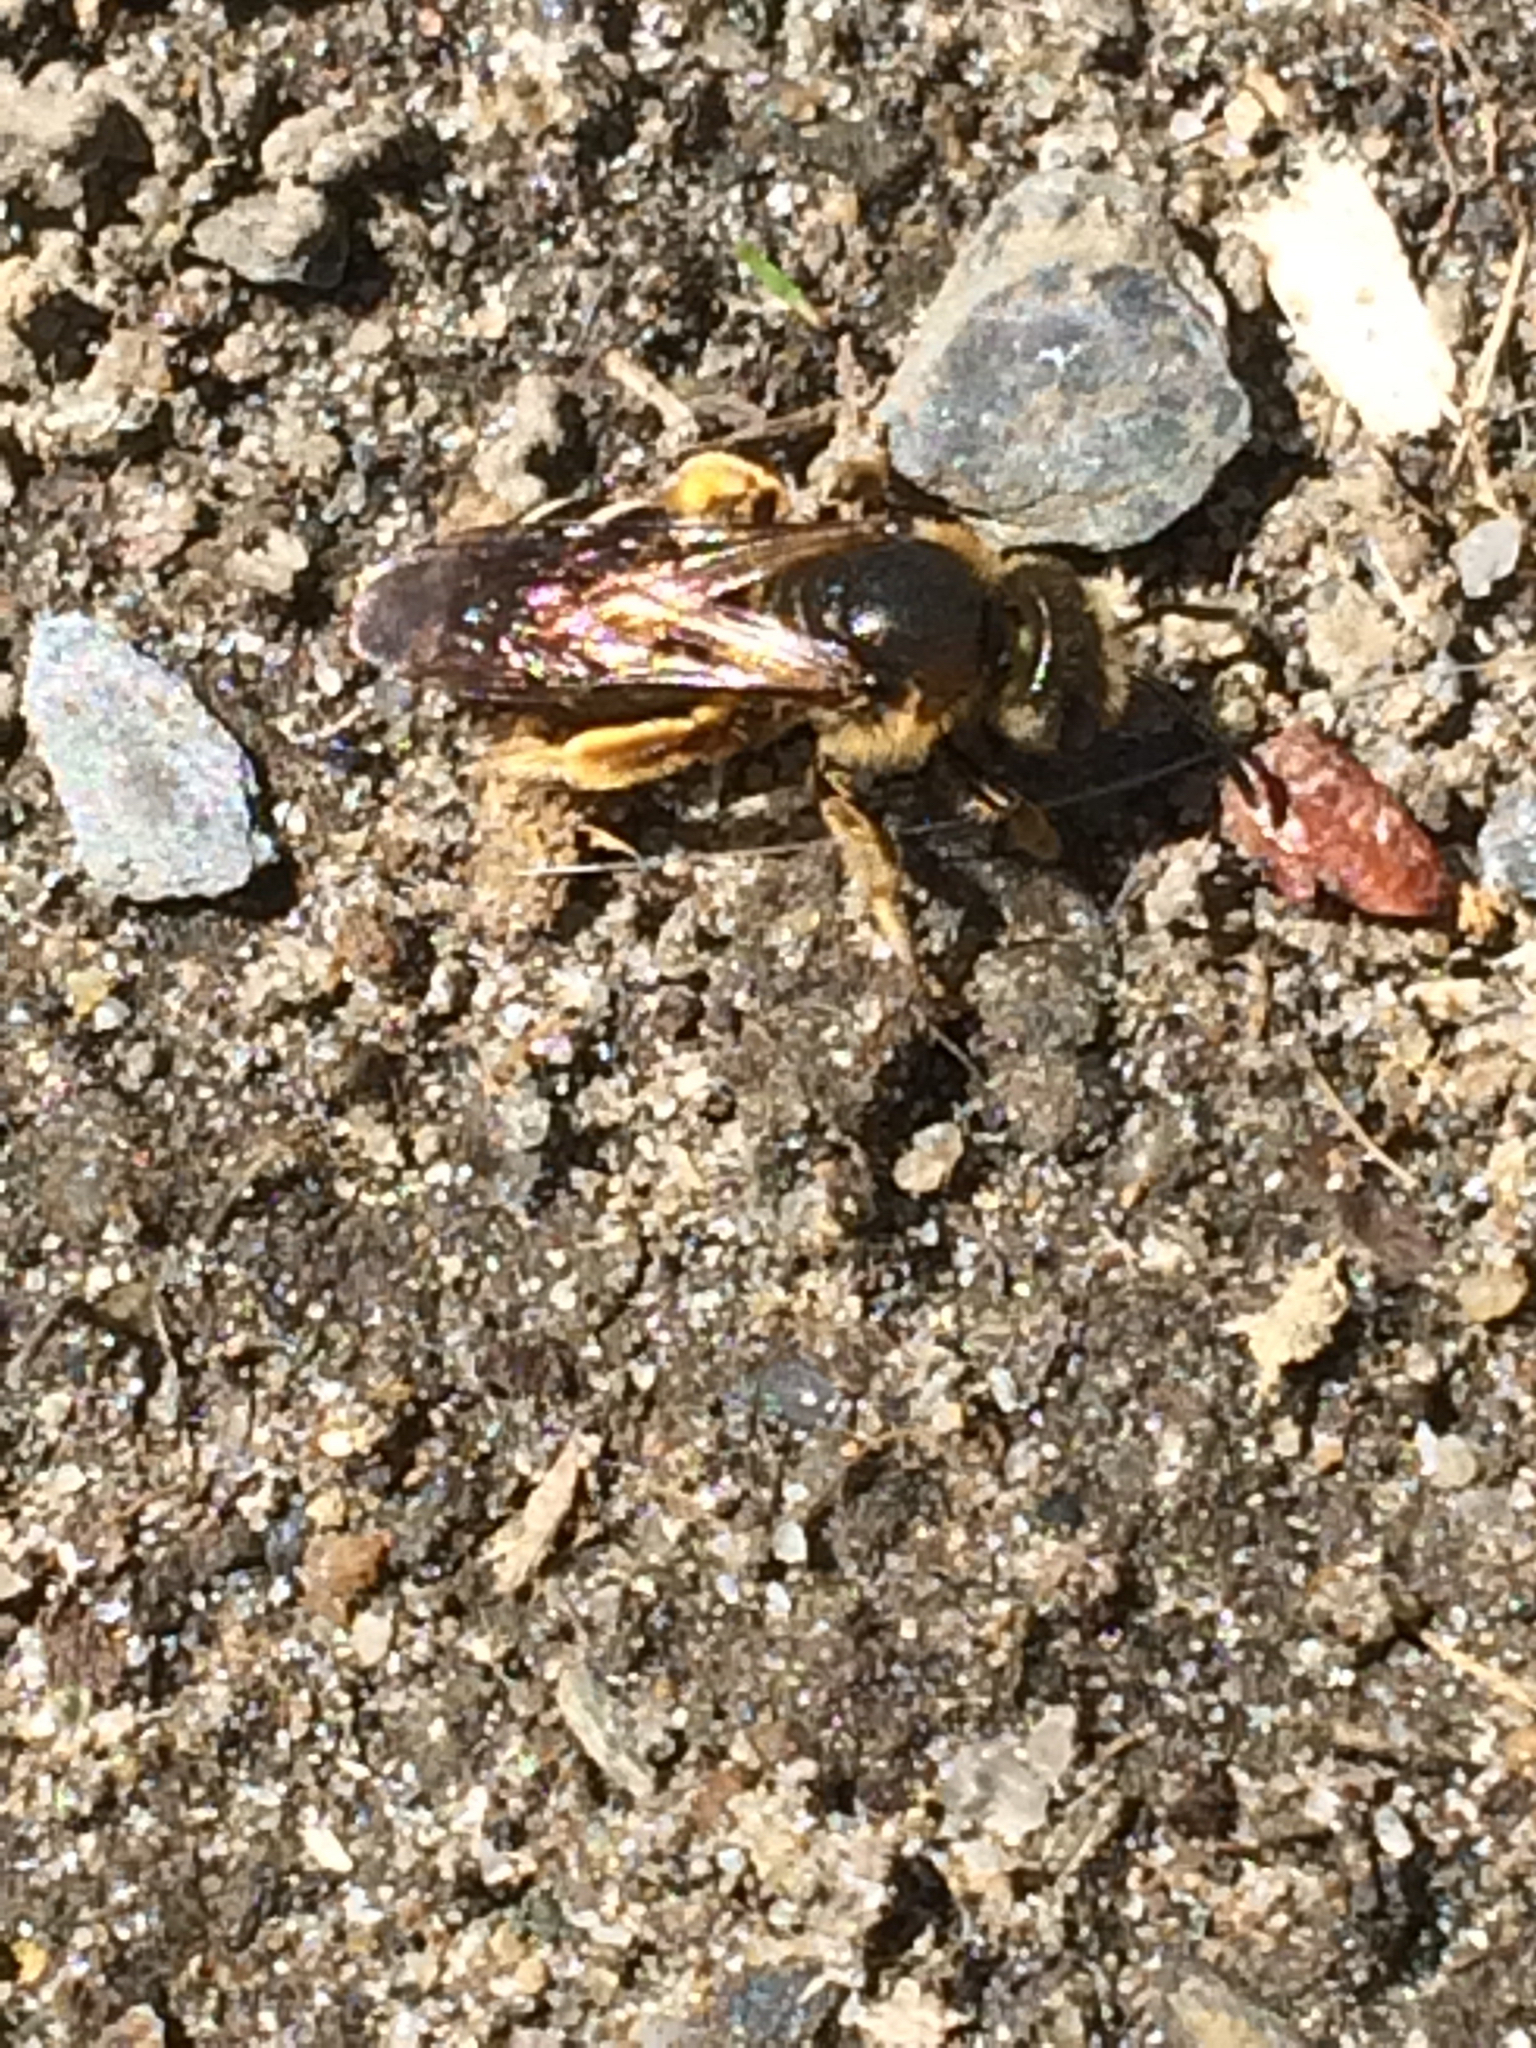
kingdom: Animalia
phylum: Arthropoda
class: Insecta
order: Hymenoptera
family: Halictidae
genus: Halictus
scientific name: Halictus rubicundus
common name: Orange-legged furrow bee
